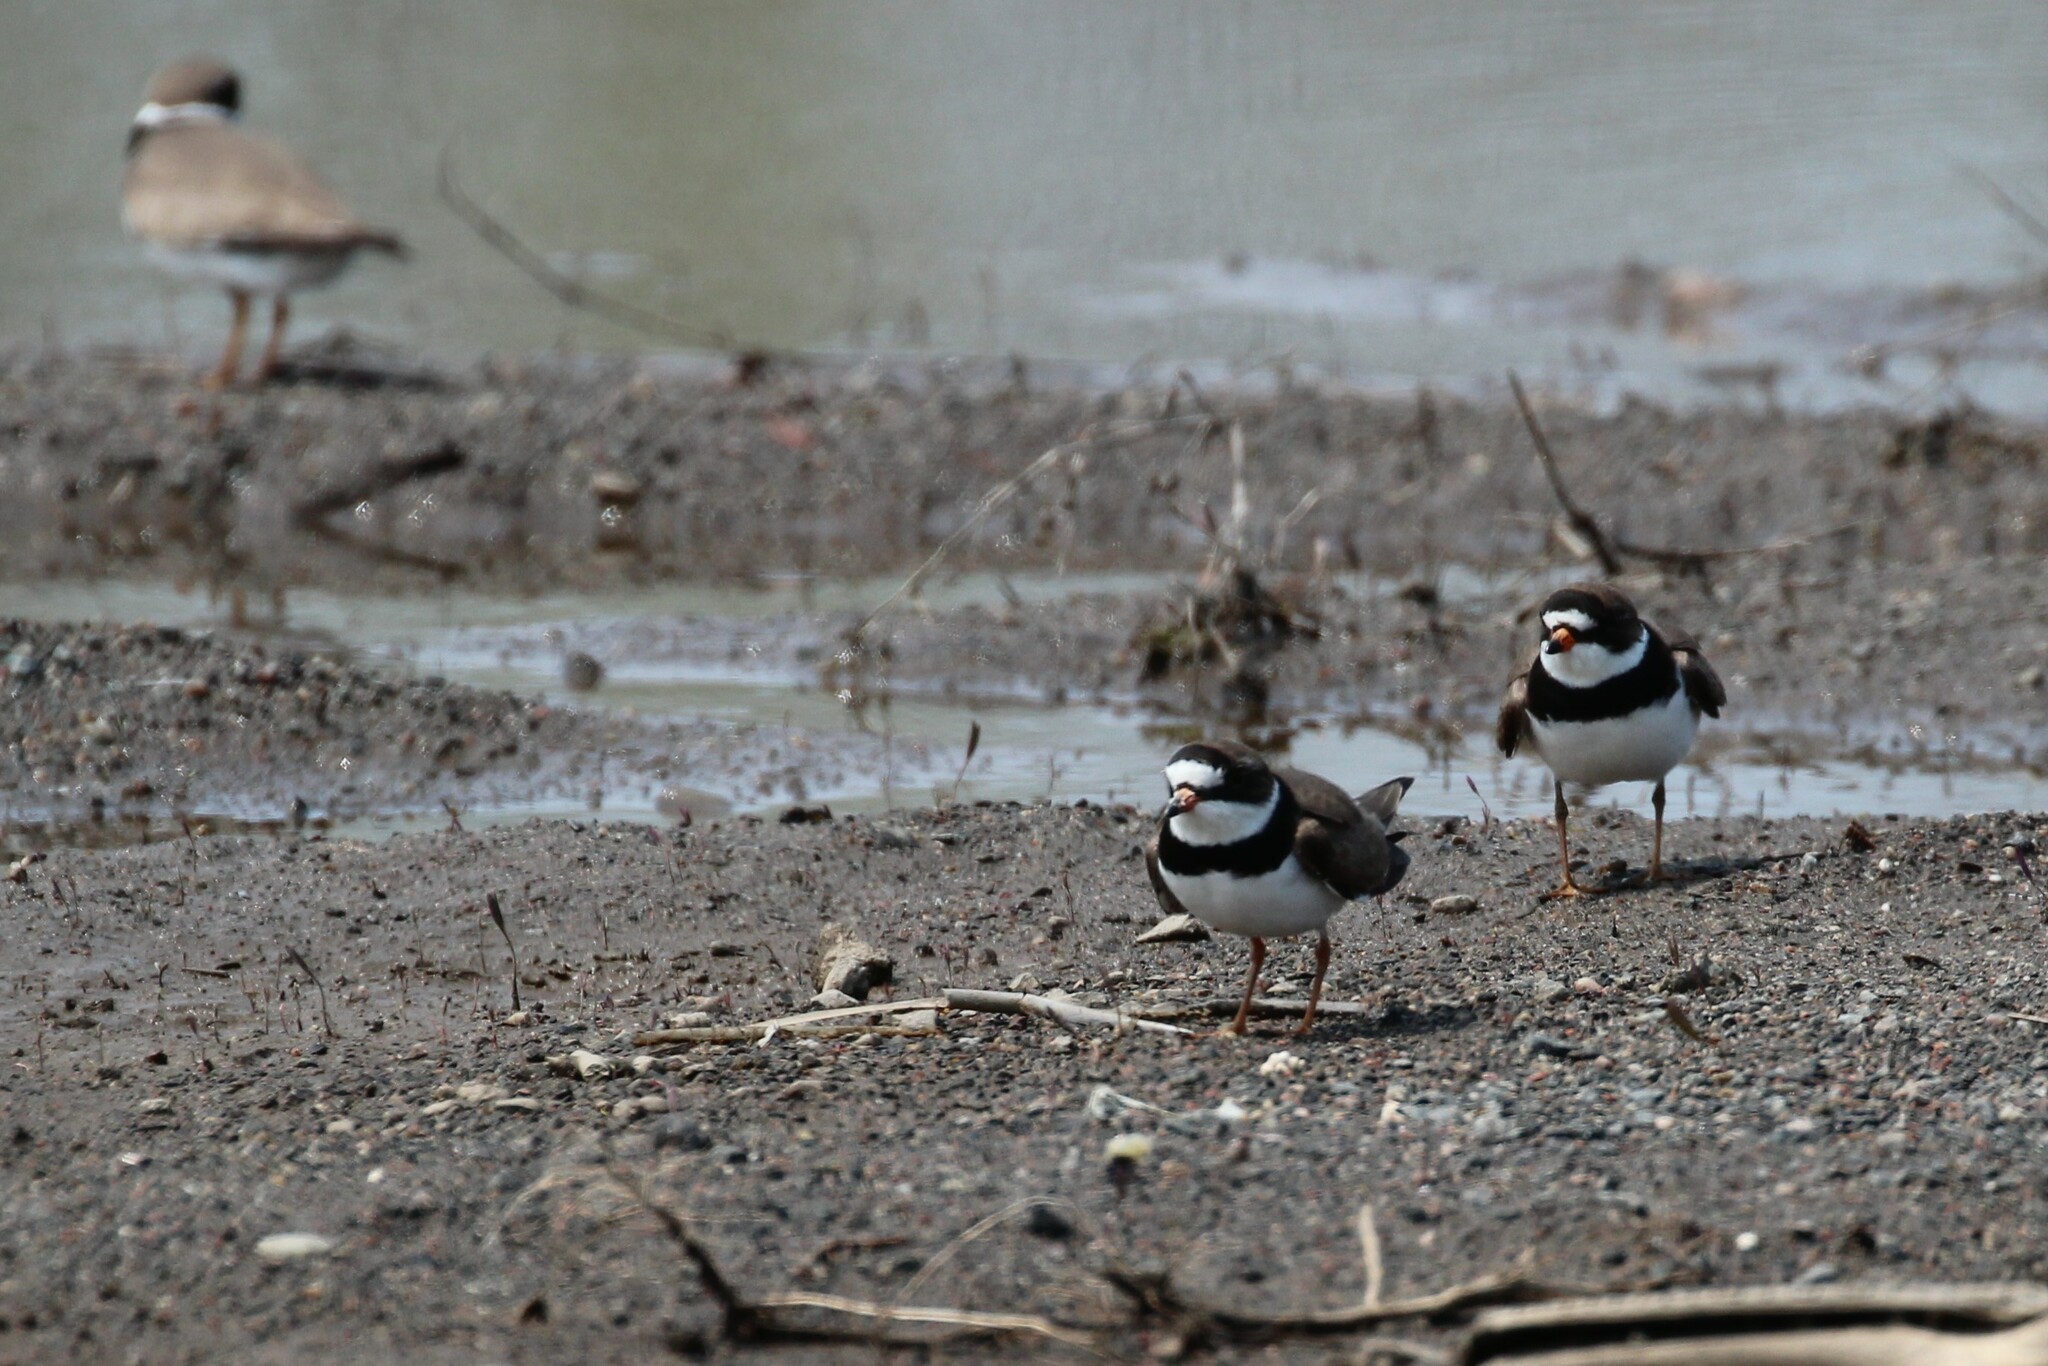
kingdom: Animalia
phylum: Chordata
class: Aves
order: Charadriiformes
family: Charadriidae
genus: Charadrius
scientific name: Charadrius semipalmatus
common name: Semipalmated plover
